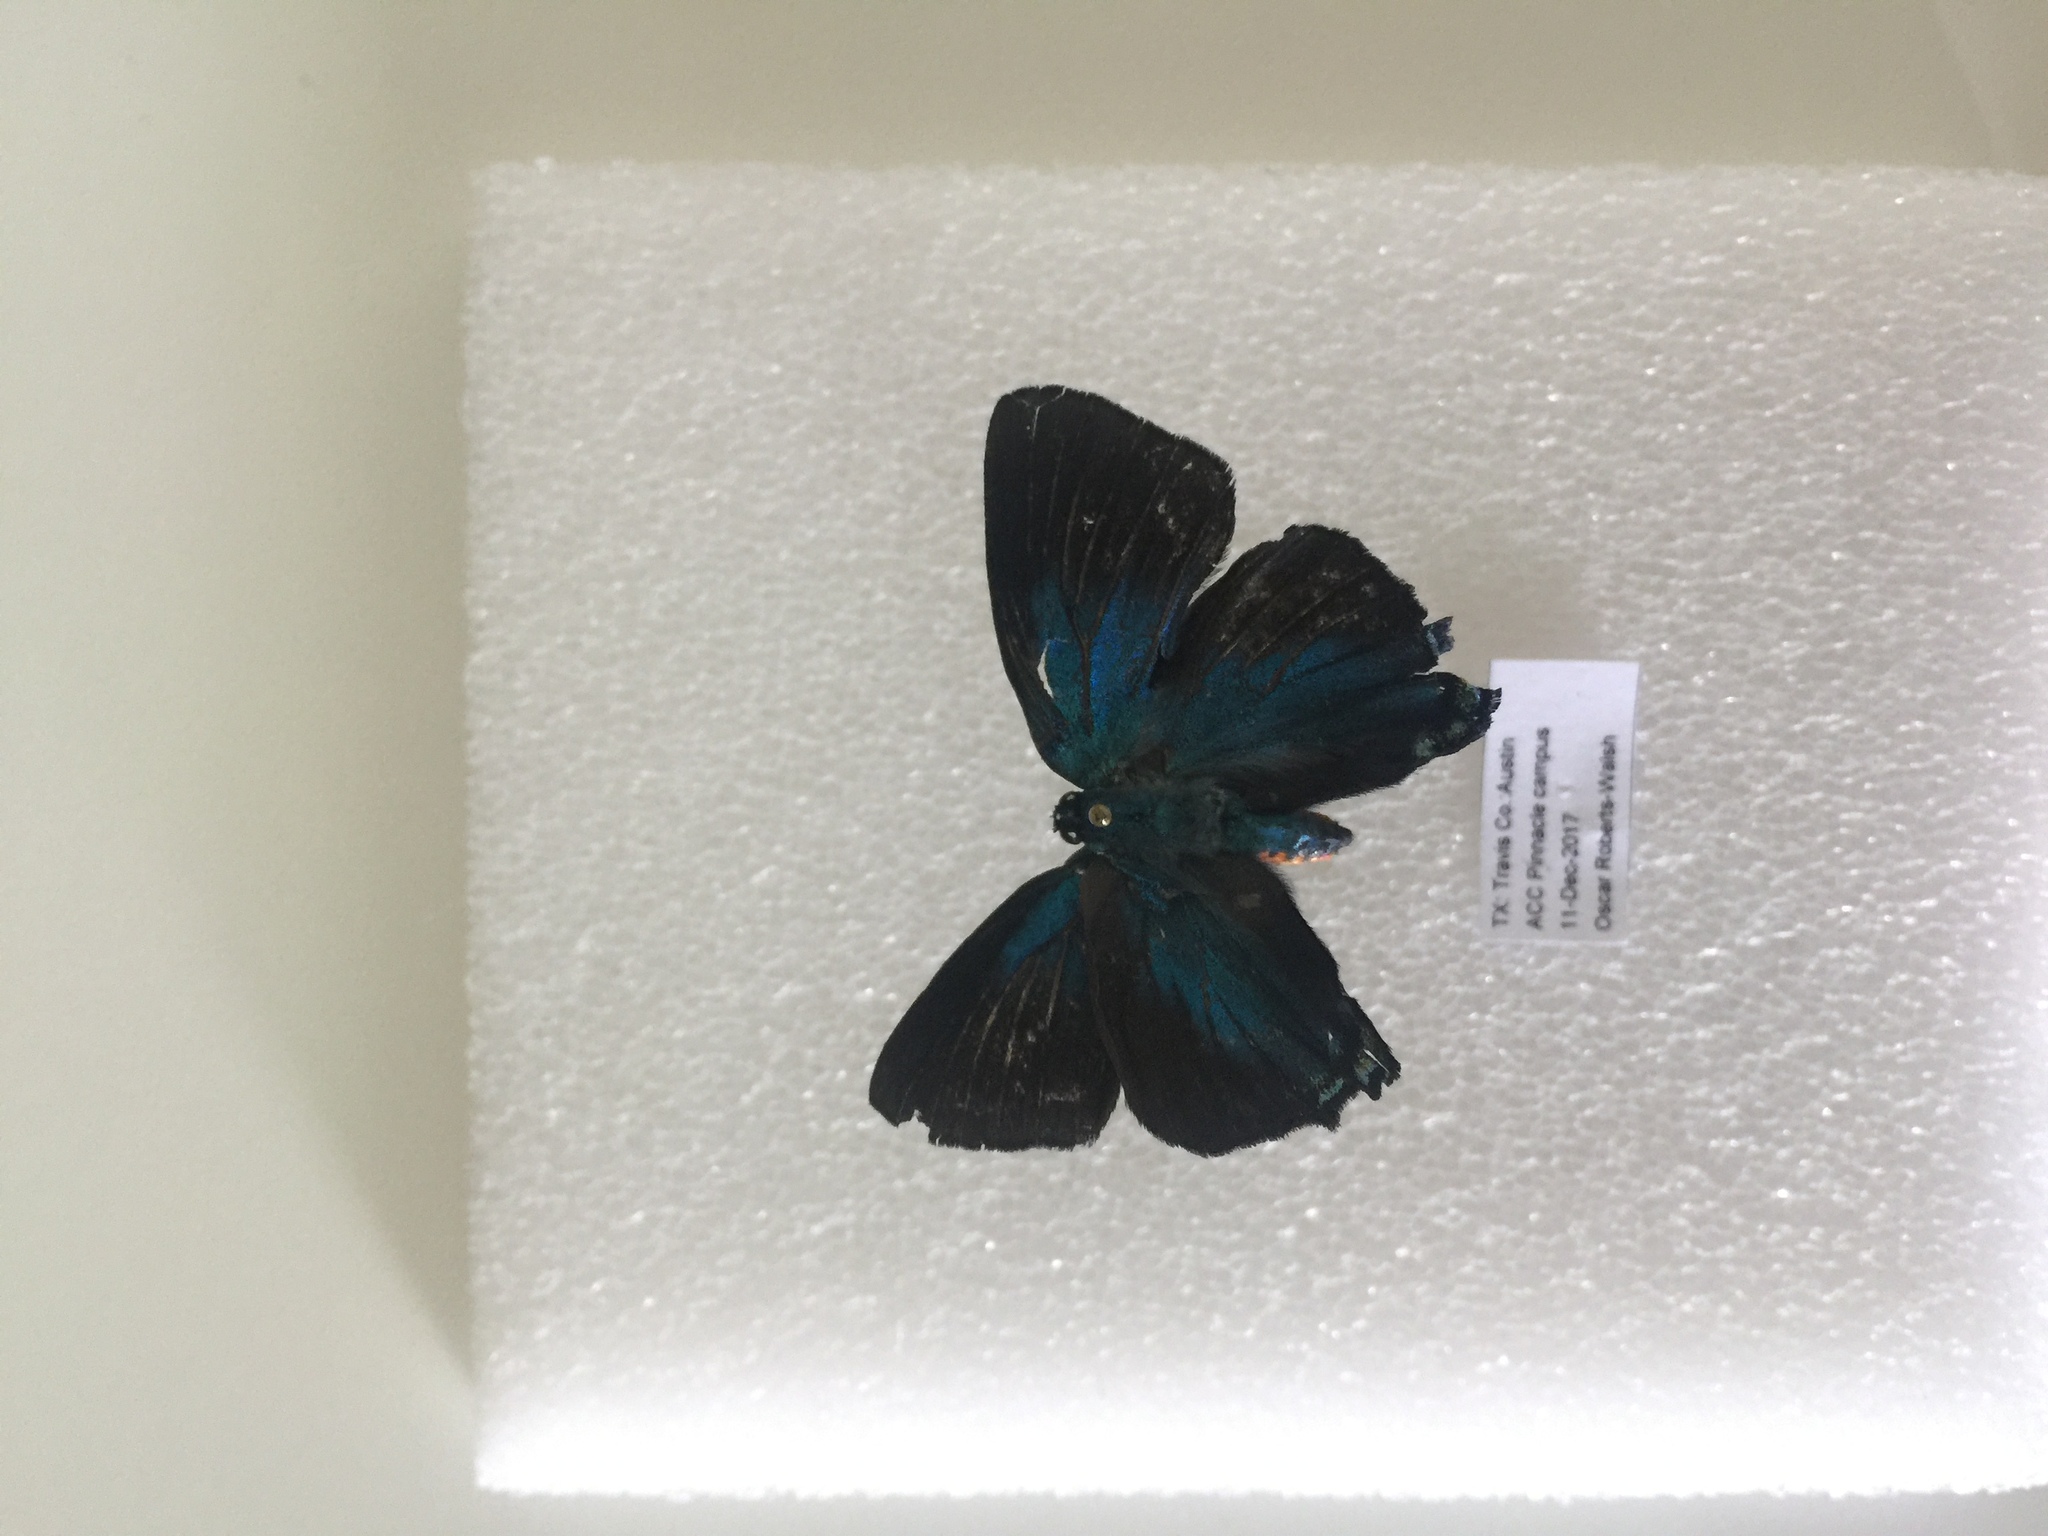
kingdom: Animalia
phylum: Arthropoda
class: Insecta
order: Lepidoptera
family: Lycaenidae
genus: Atlides
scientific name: Atlides halesus
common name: Great purple hairstreak
